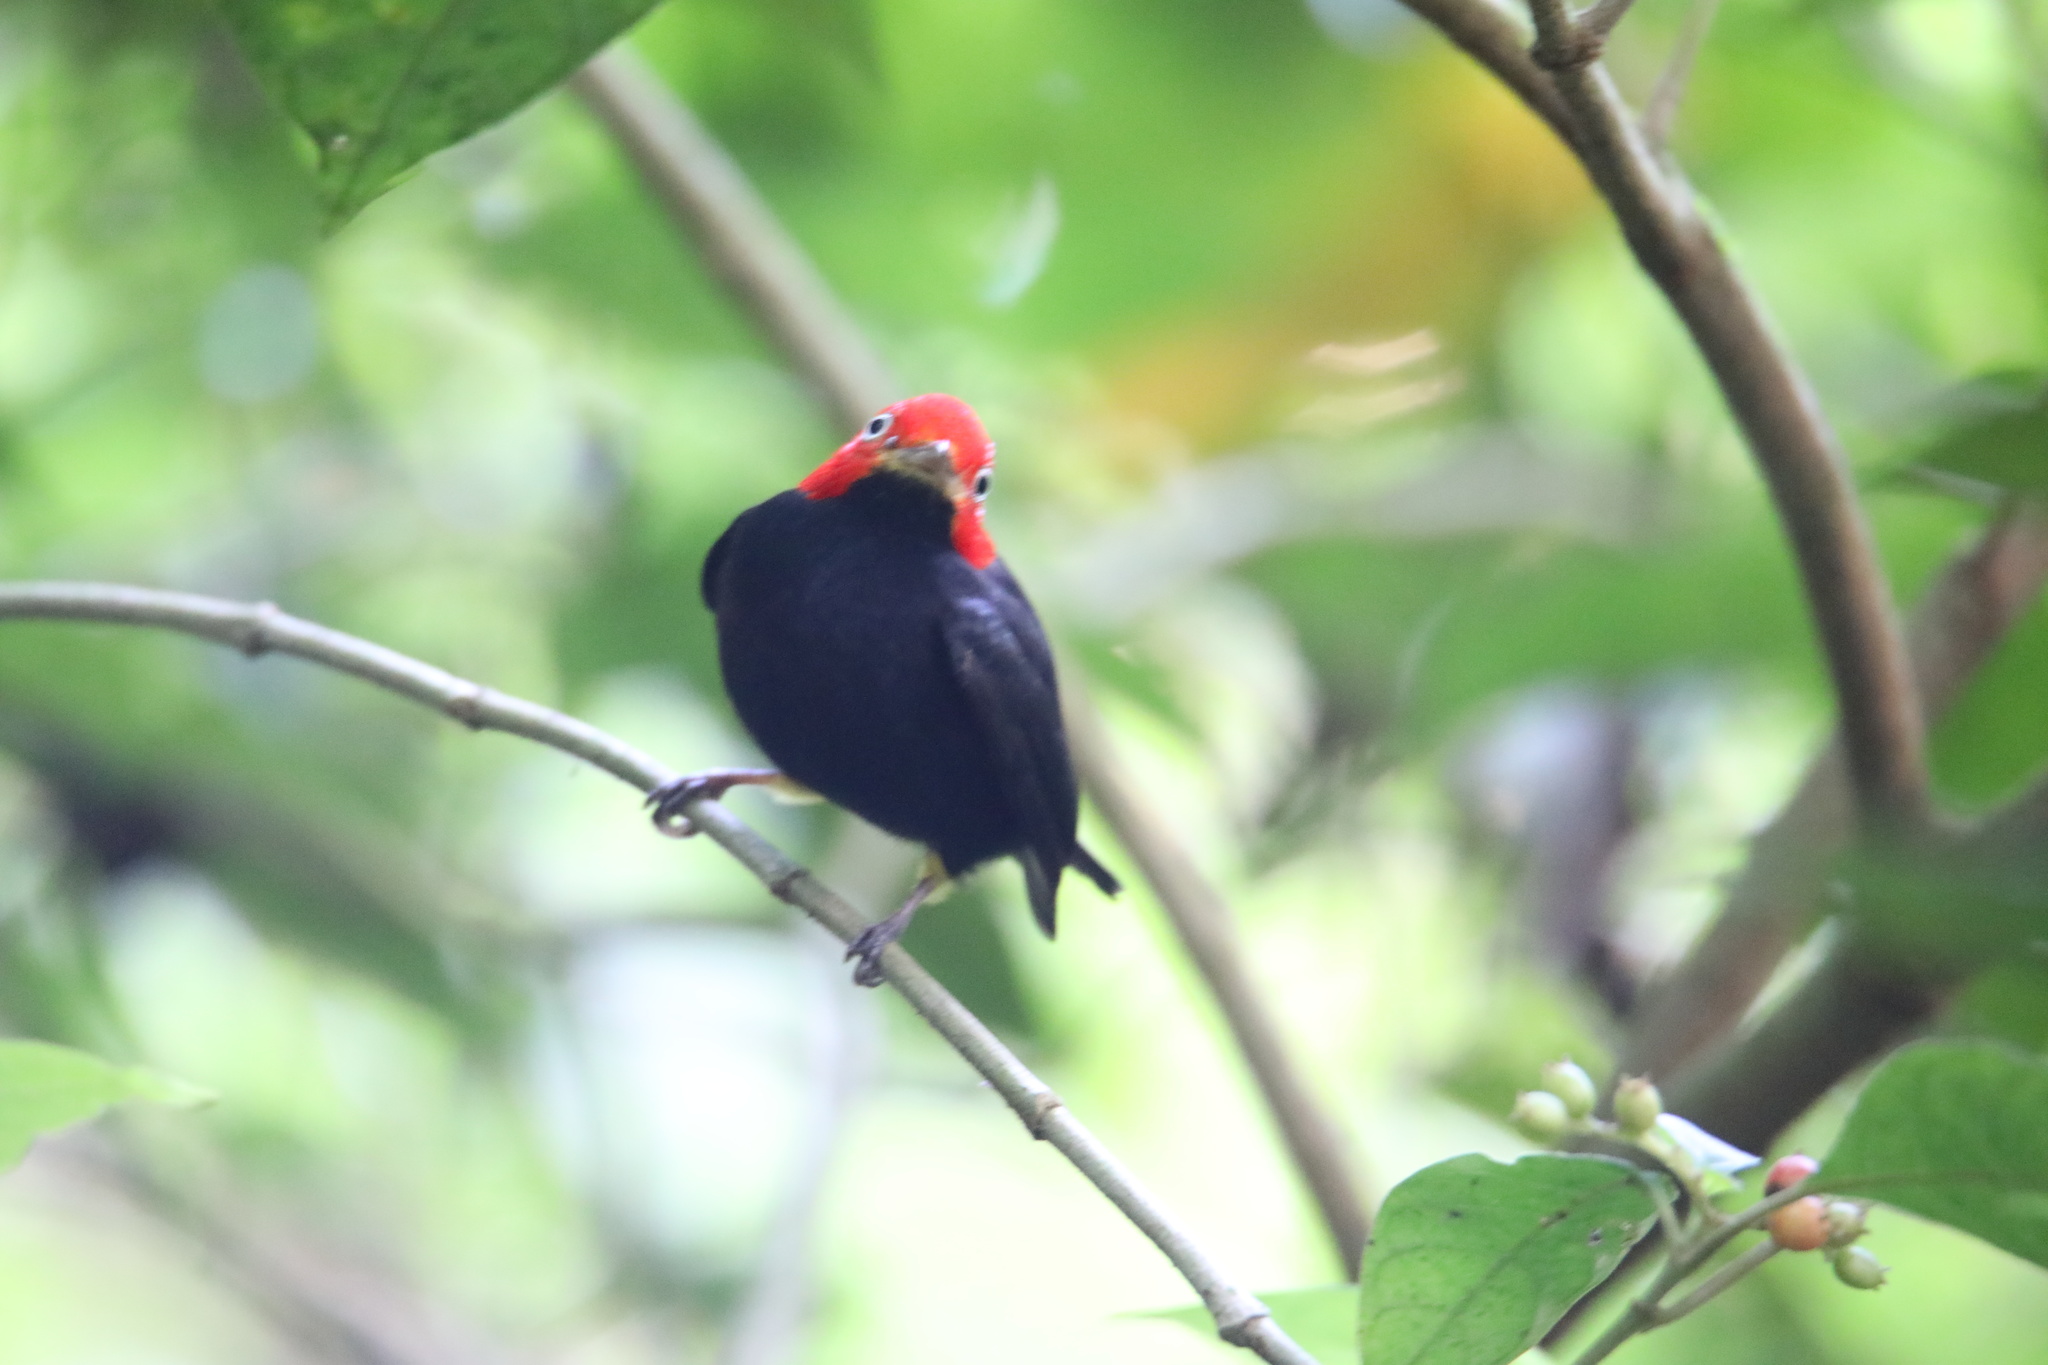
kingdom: Animalia
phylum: Chordata
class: Aves
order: Passeriformes
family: Pipridae
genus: Pipra
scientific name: Pipra mentalis
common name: Red-capped manakin
